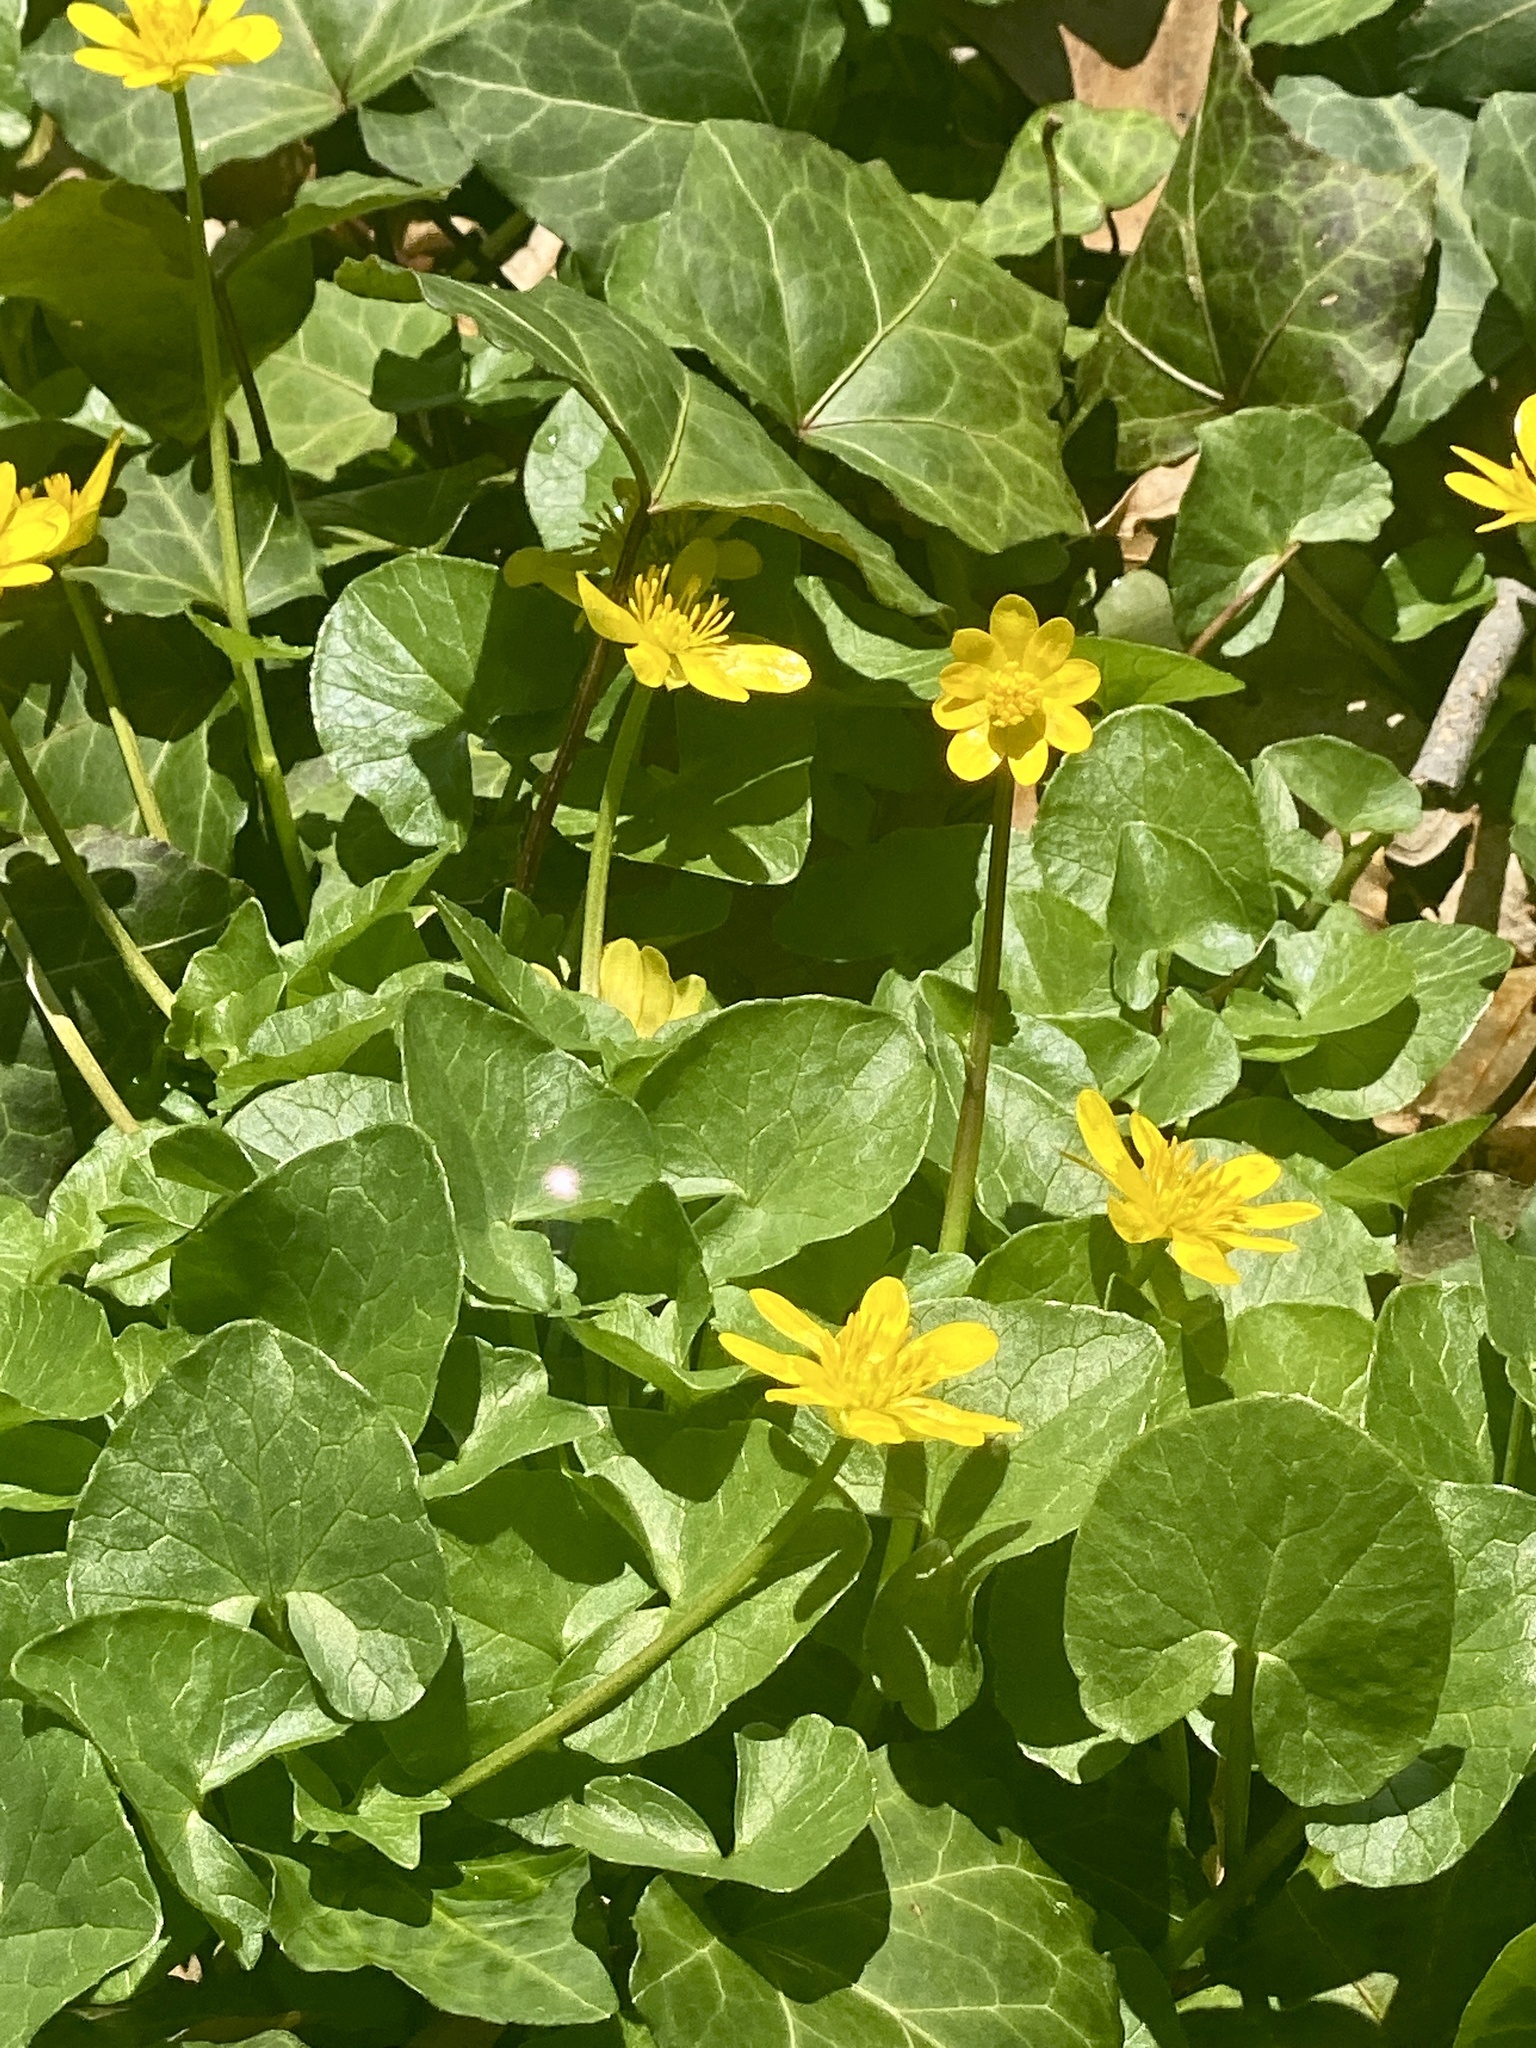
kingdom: Plantae
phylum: Tracheophyta
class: Magnoliopsida
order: Ranunculales
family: Ranunculaceae
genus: Ficaria
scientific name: Ficaria verna
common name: Lesser celandine
